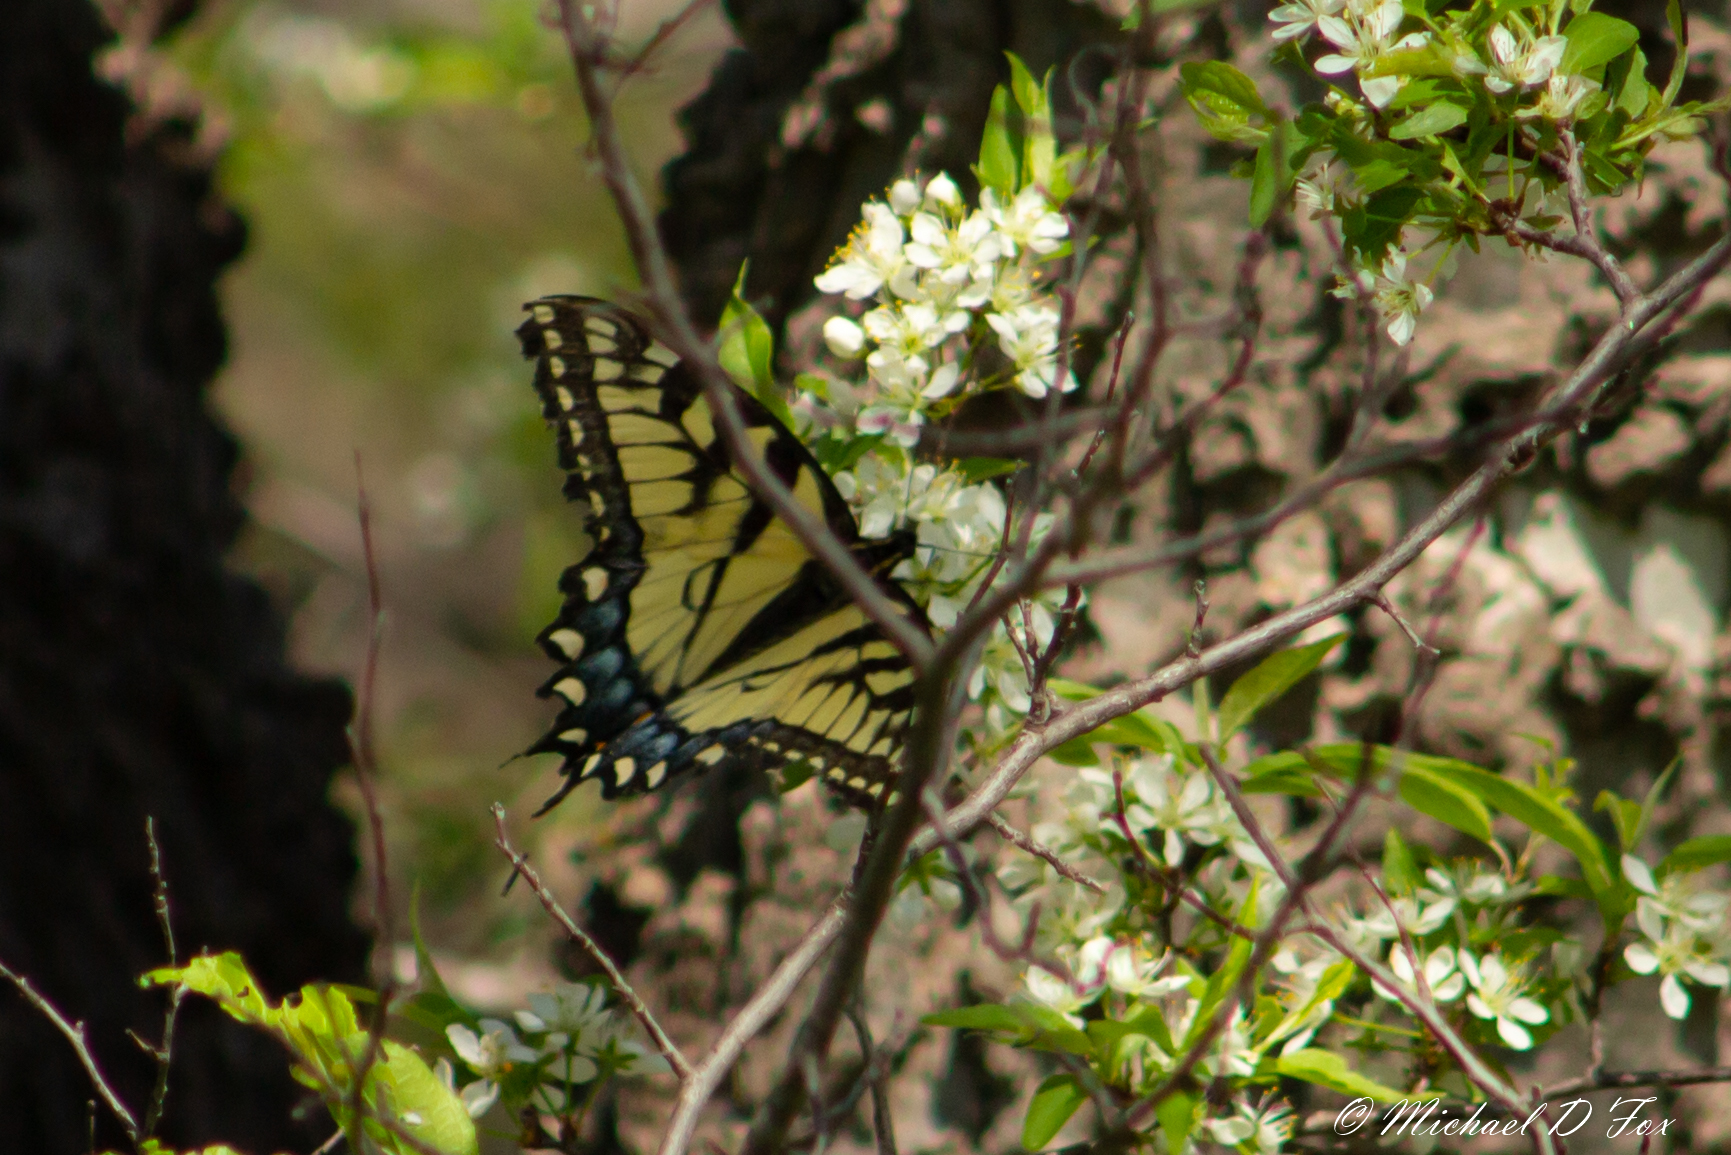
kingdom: Animalia
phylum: Arthropoda
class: Insecta
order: Lepidoptera
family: Papilionidae
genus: Papilio
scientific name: Papilio glaucus
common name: Tiger swallowtail
